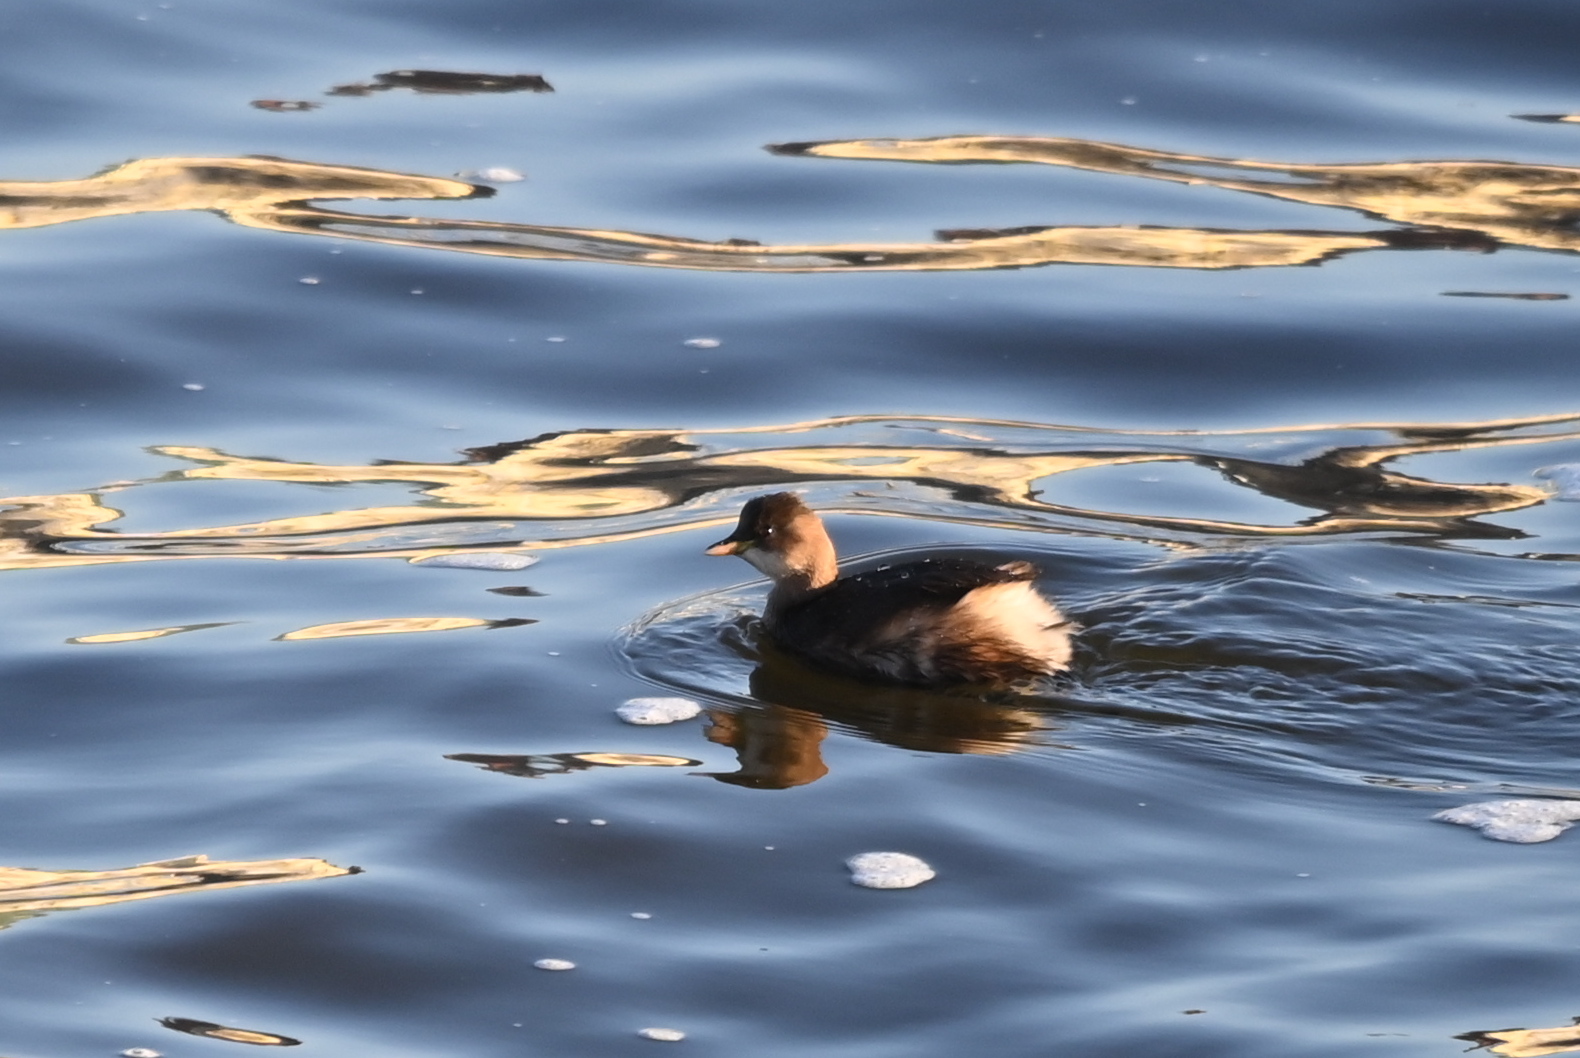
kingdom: Animalia
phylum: Chordata
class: Aves
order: Podicipediformes
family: Podicipedidae
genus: Tachybaptus
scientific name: Tachybaptus ruficollis
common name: Little grebe
